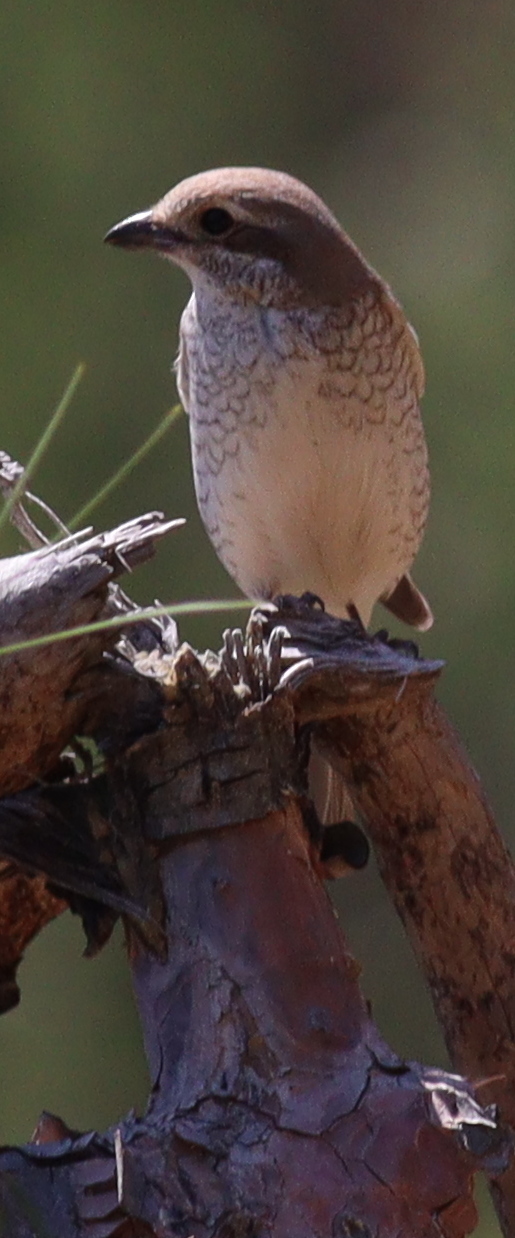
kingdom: Animalia
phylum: Chordata
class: Aves
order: Passeriformes
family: Laniidae
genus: Lanius
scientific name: Lanius collurio
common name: Red-backed shrike
